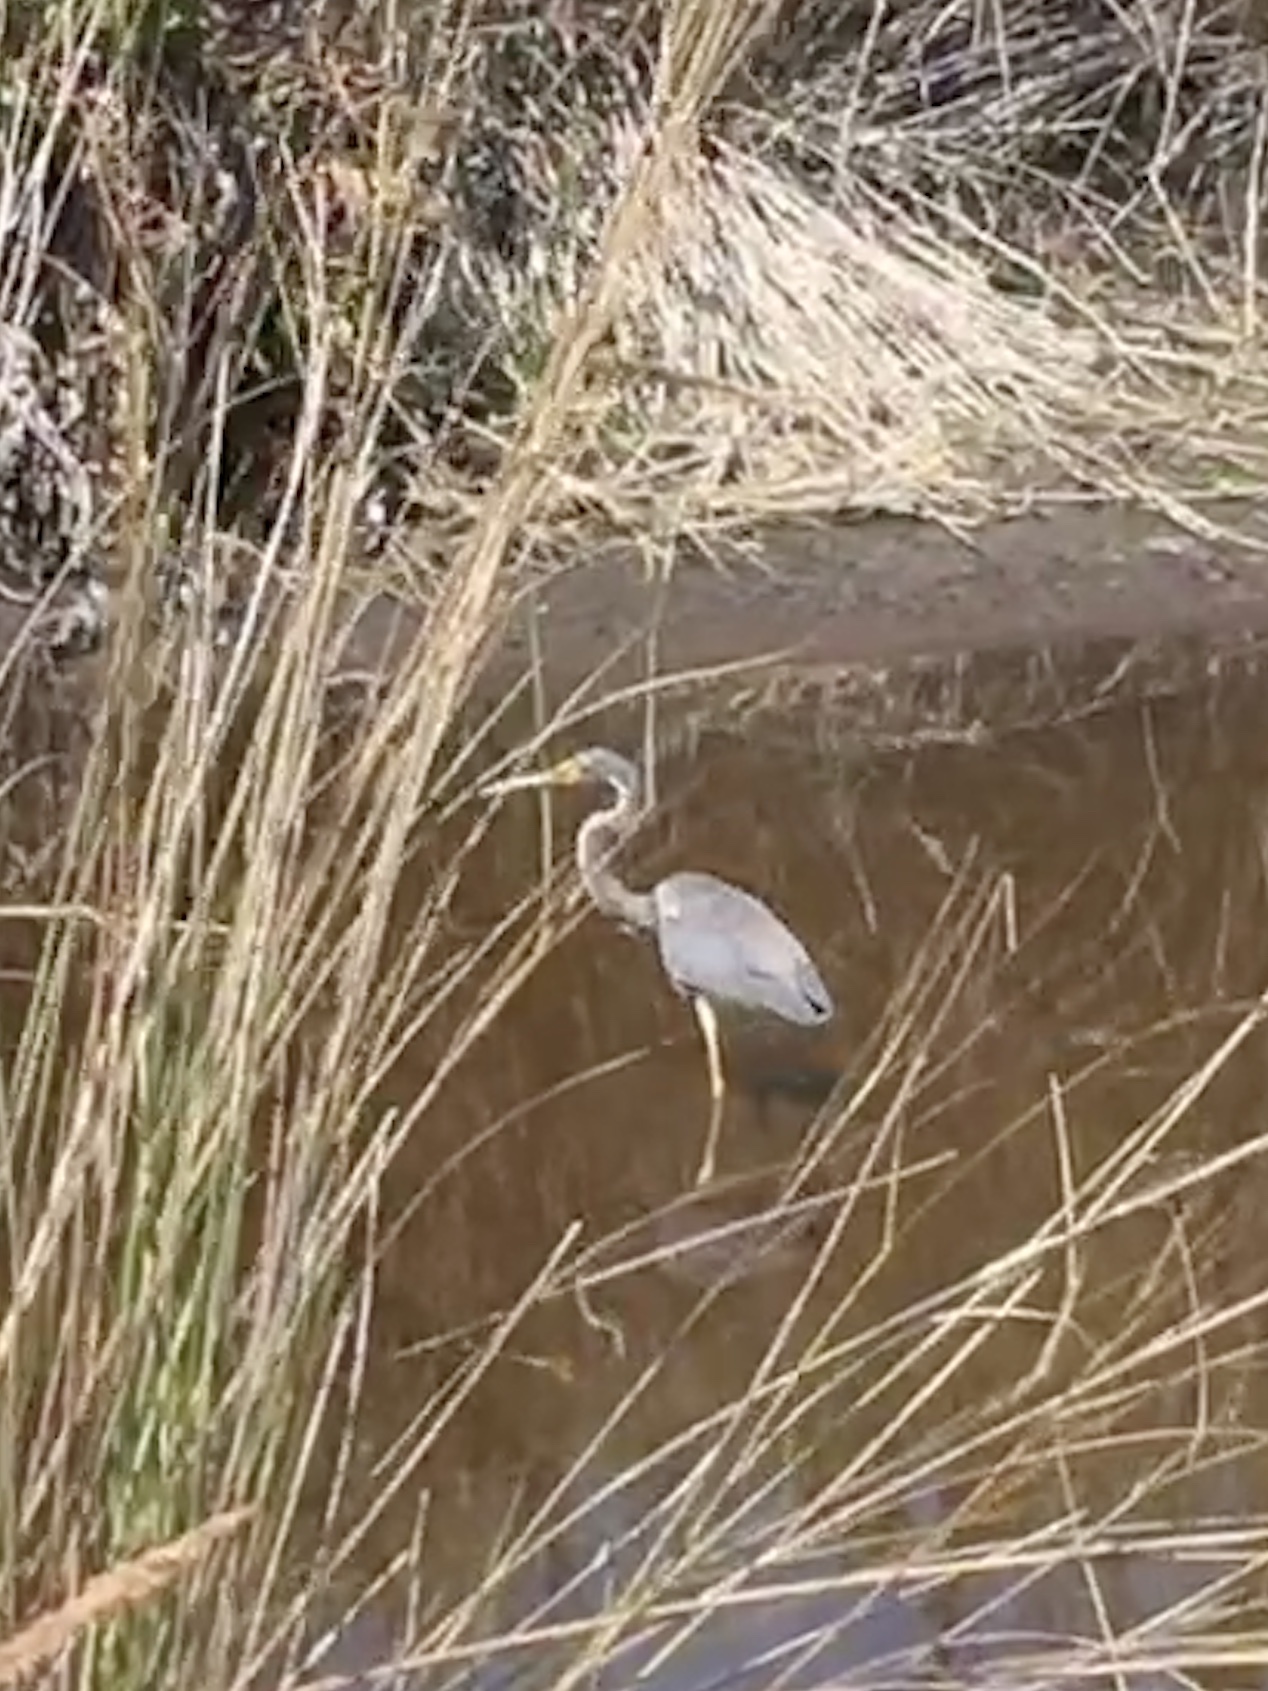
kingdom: Animalia
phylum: Chordata
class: Aves
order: Pelecaniformes
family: Ardeidae
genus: Egretta
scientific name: Egretta tricolor
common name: Tricolored heron
